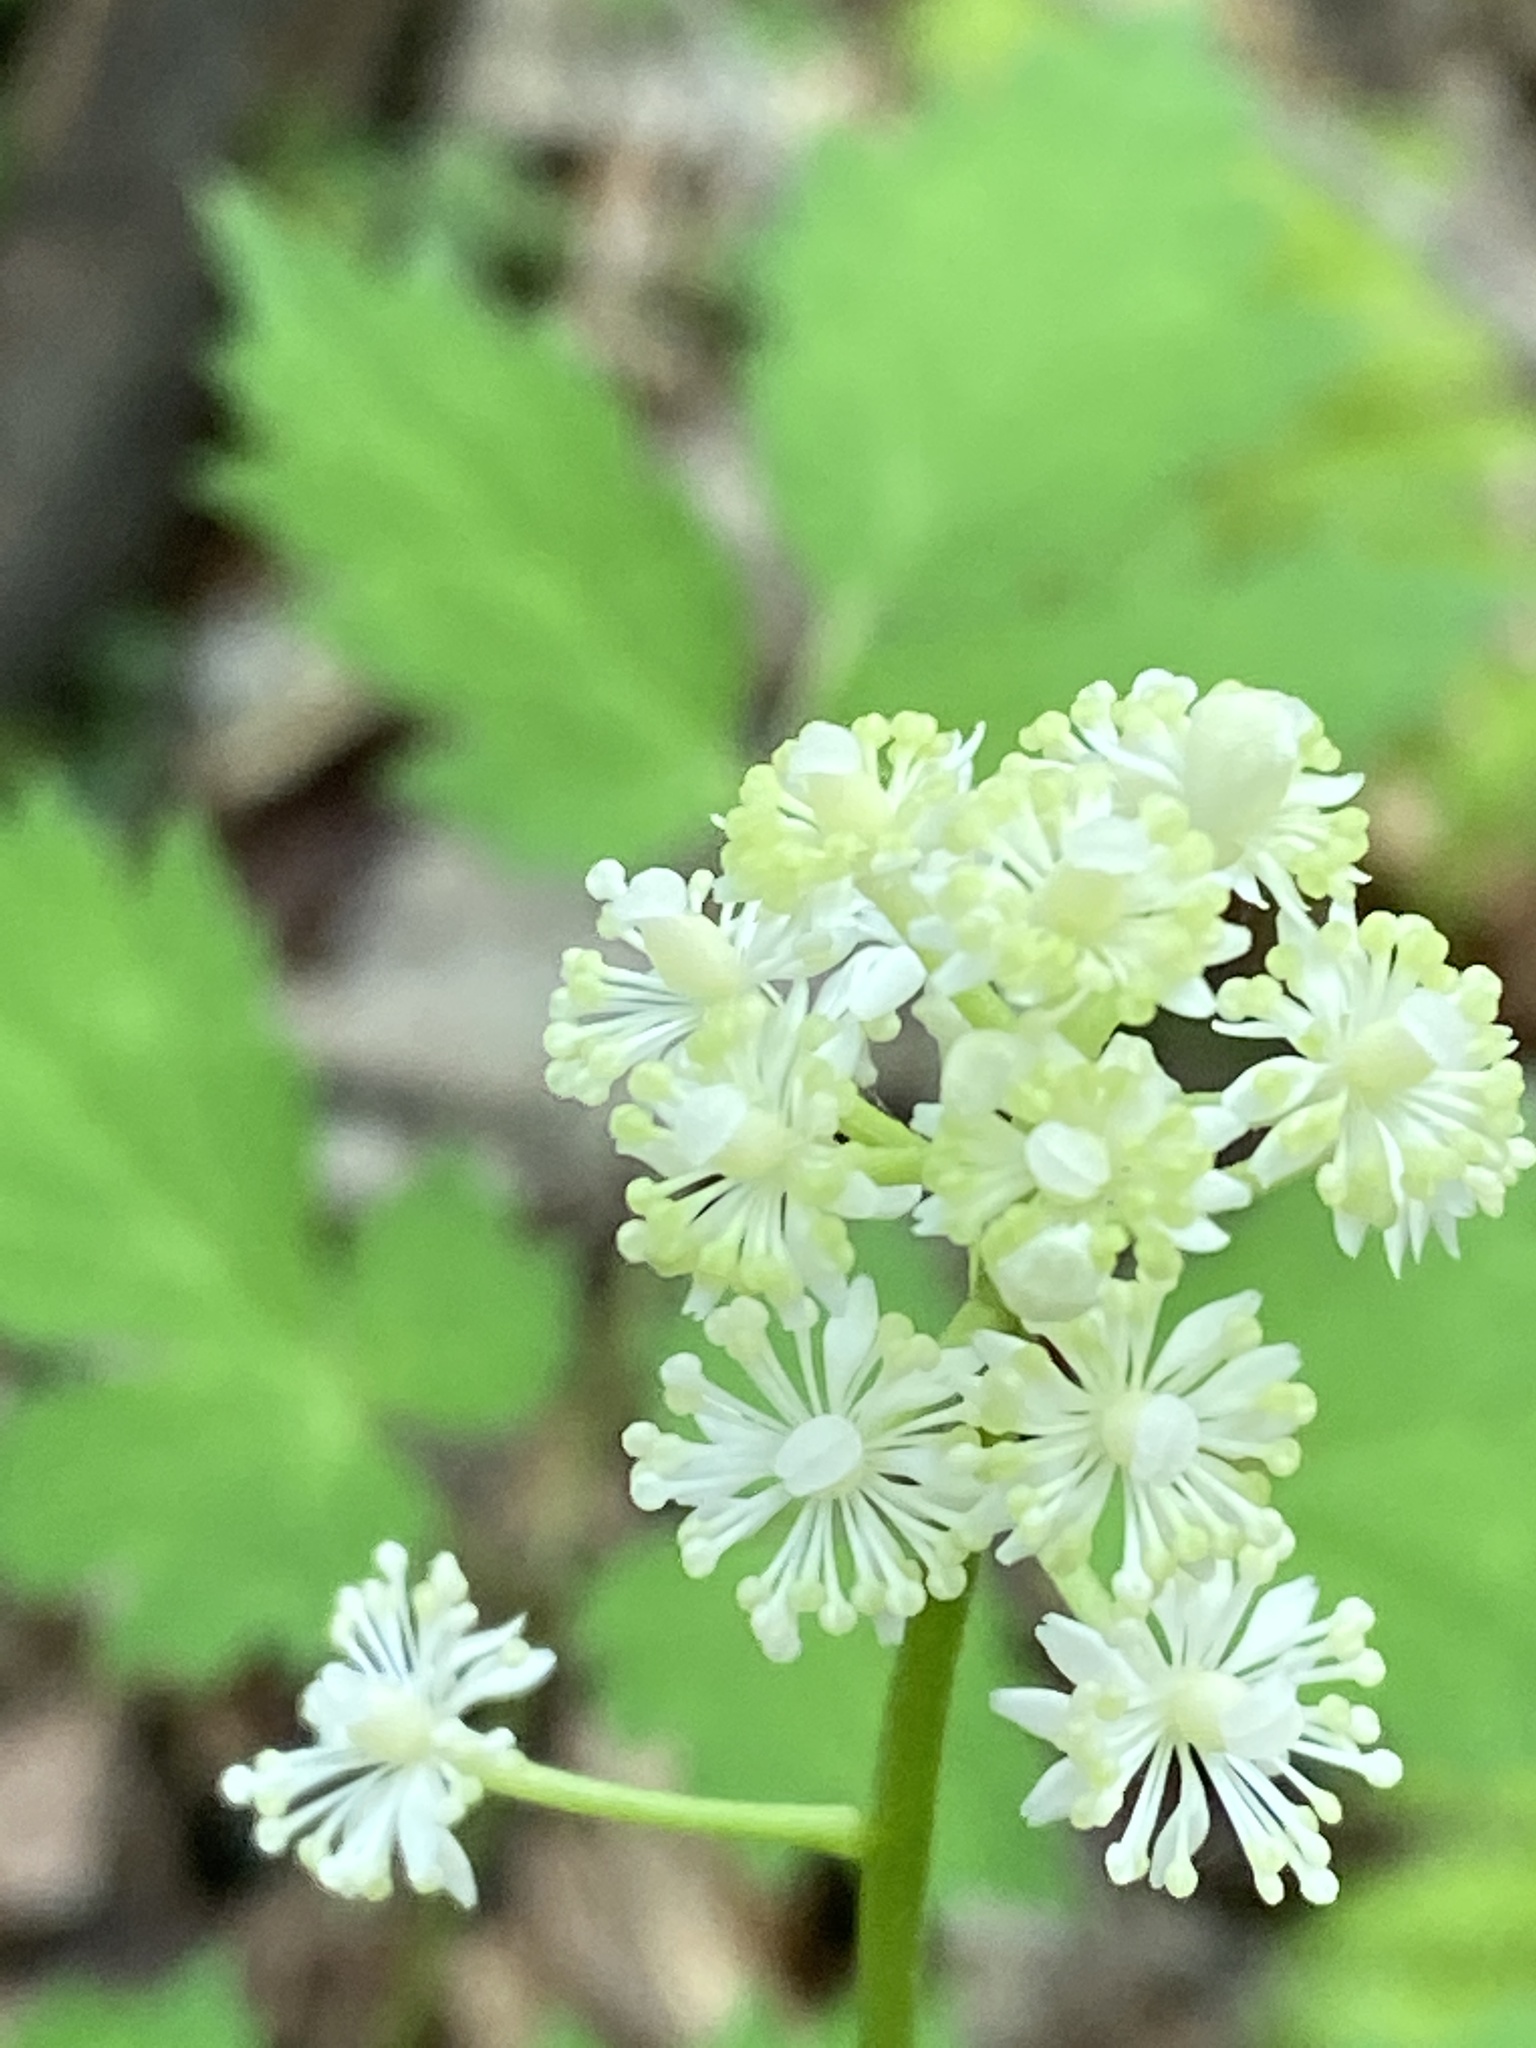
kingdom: Plantae
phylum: Tracheophyta
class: Magnoliopsida
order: Ranunculales
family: Ranunculaceae
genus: Actaea
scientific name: Actaea pachypoda
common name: Doll's-eyes
